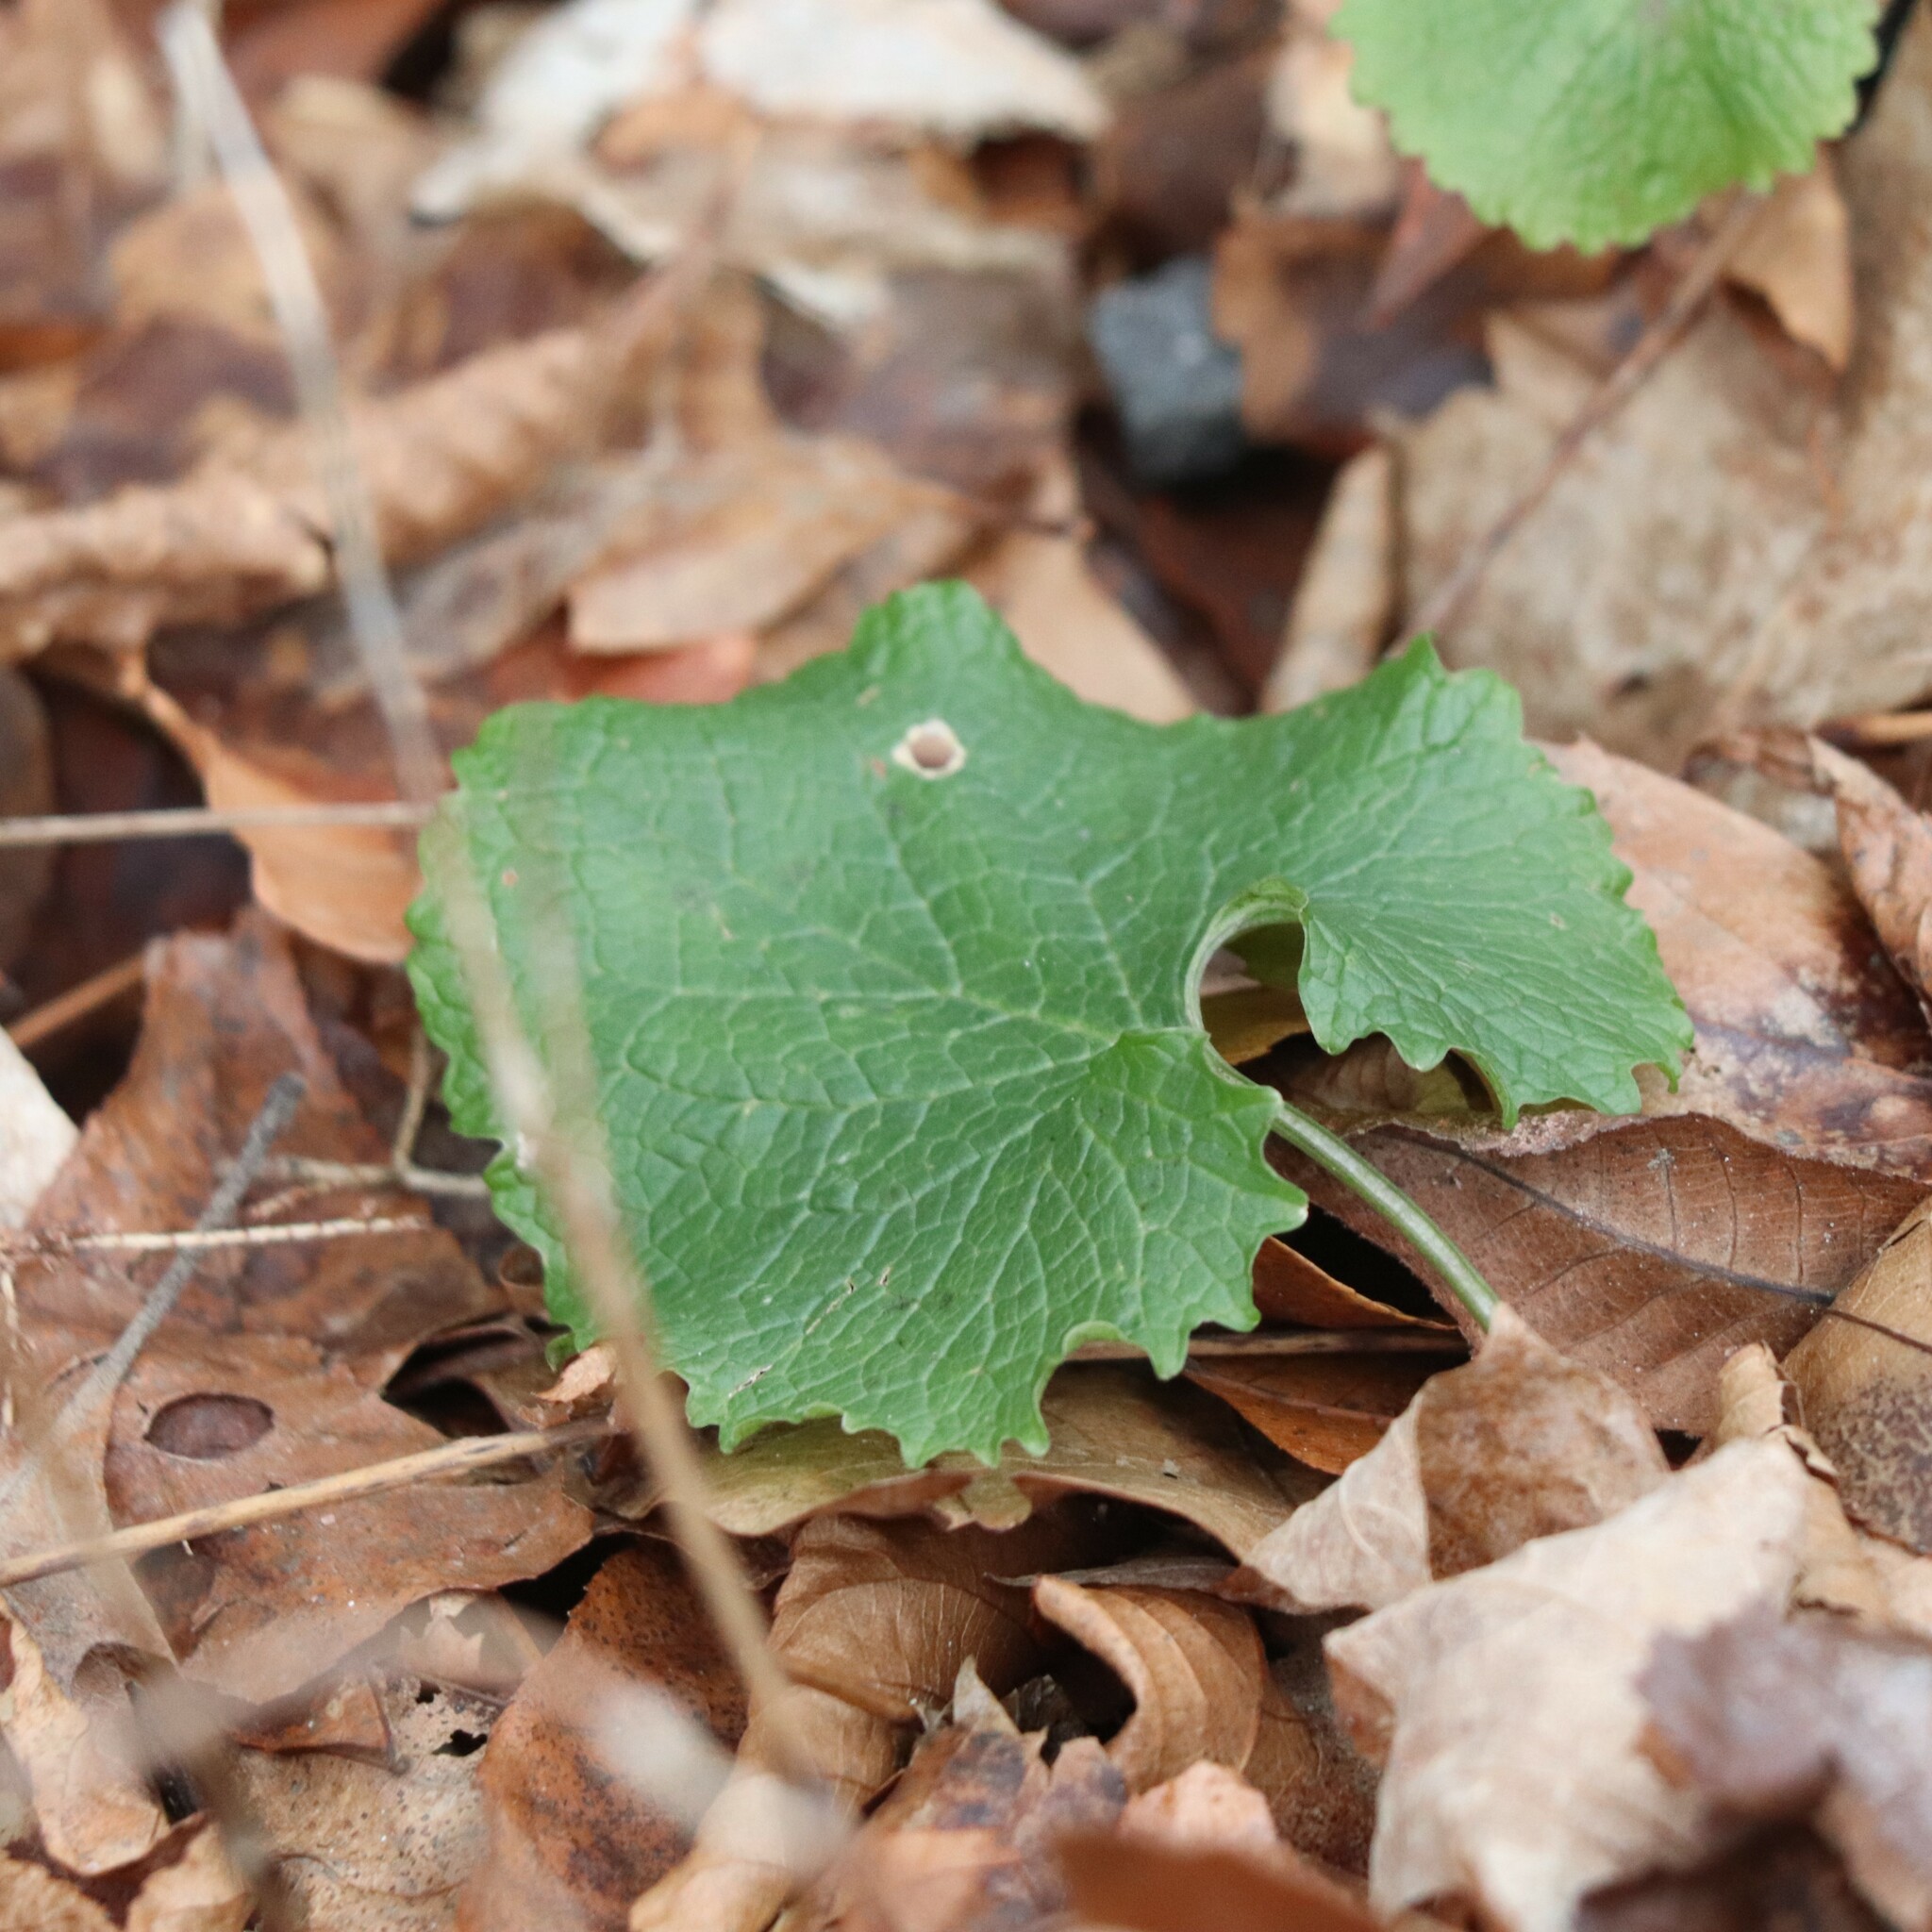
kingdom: Plantae
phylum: Tracheophyta
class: Magnoliopsida
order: Brassicales
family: Brassicaceae
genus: Alliaria
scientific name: Alliaria petiolata
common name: Garlic mustard
